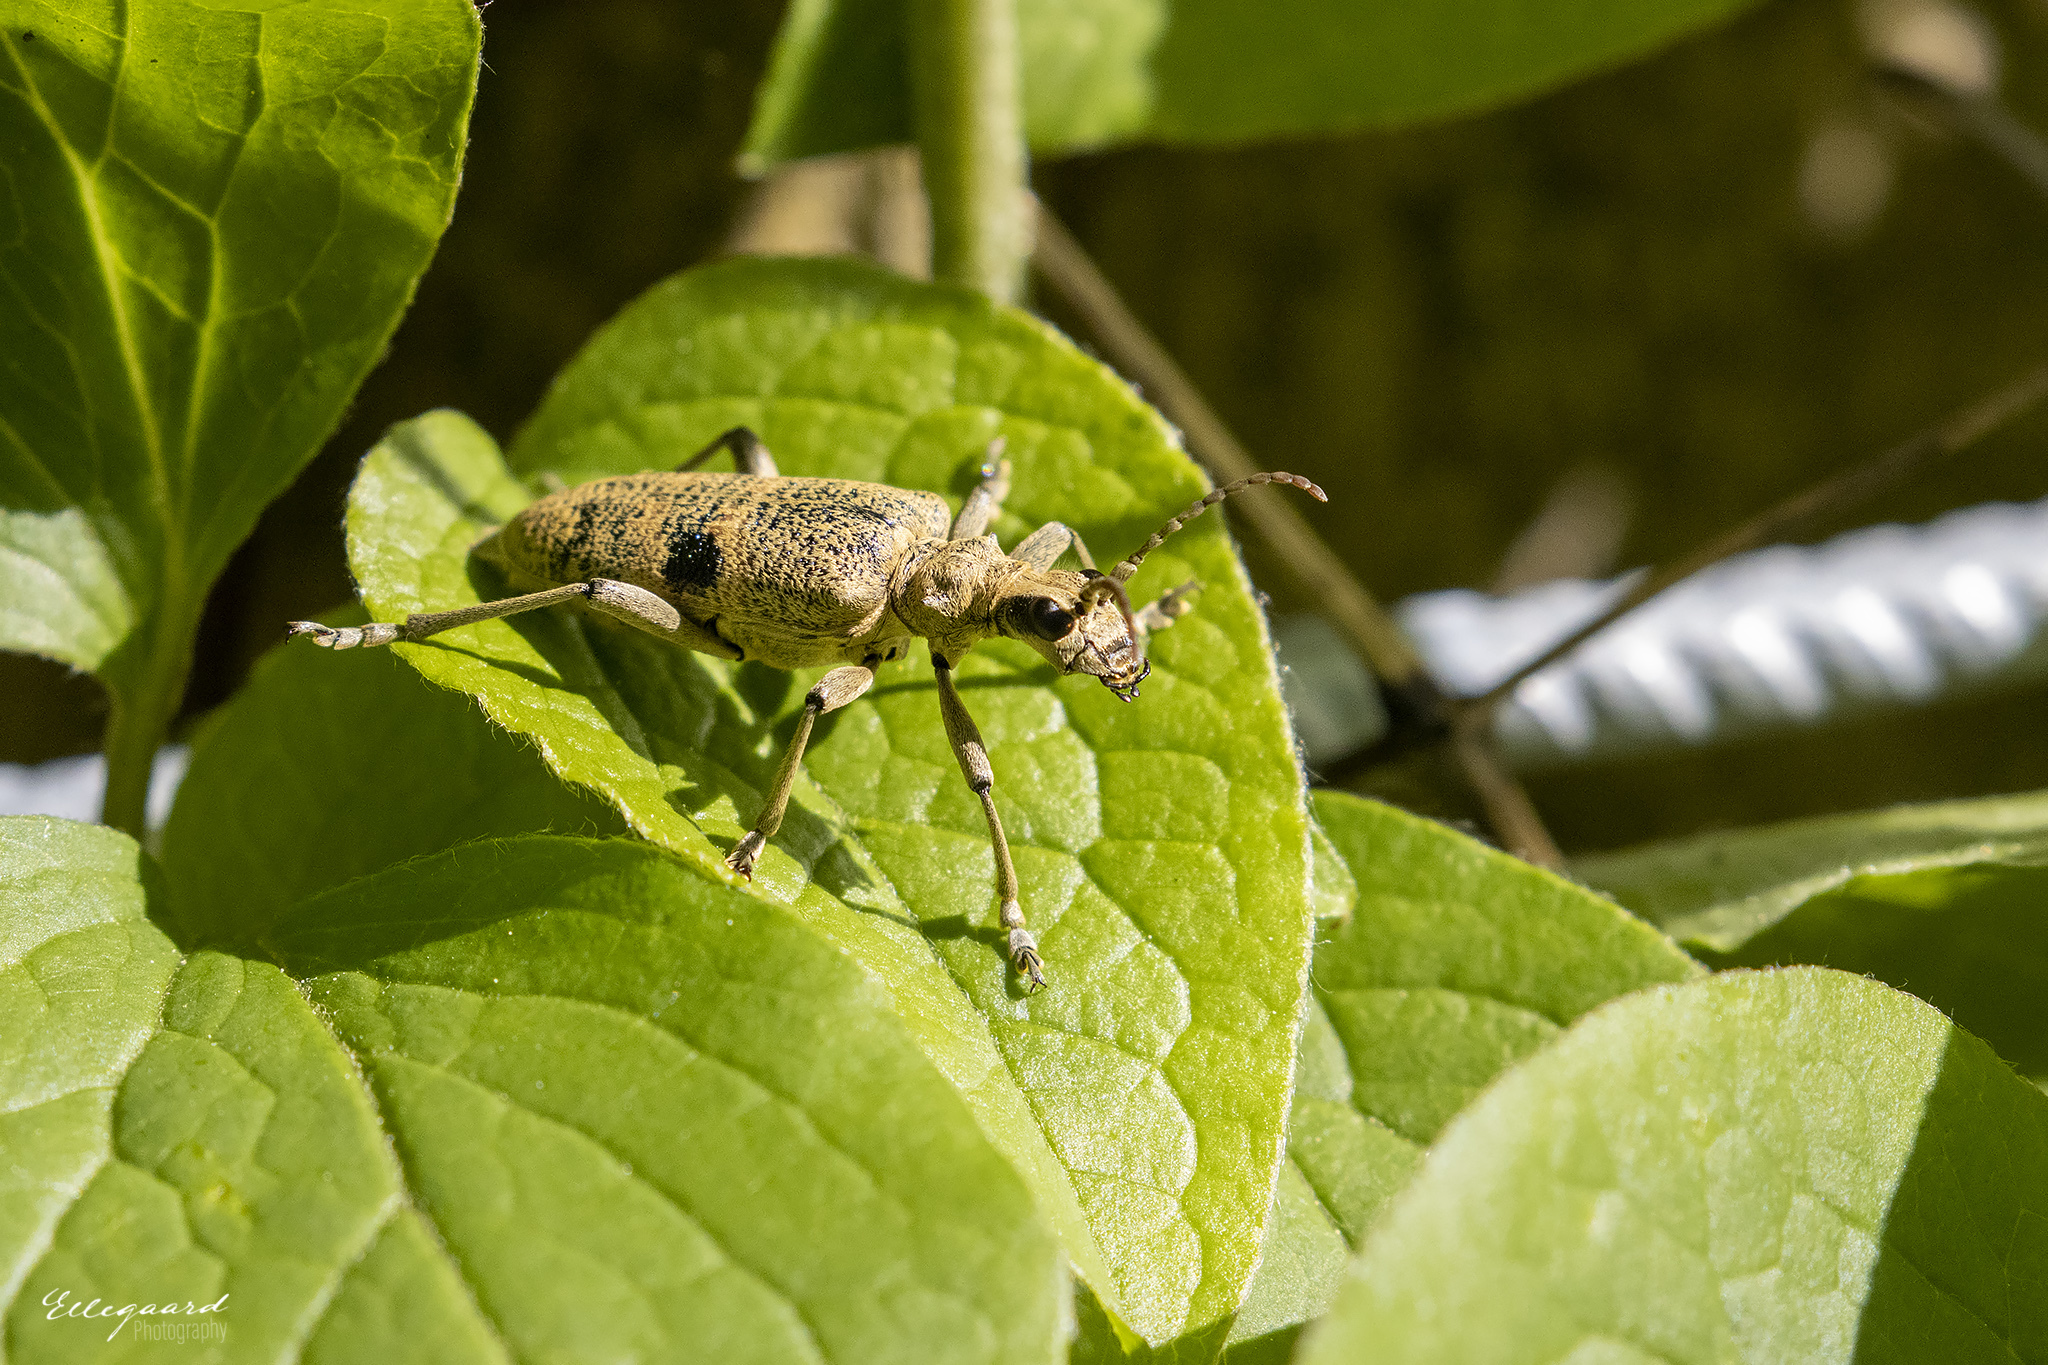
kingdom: Animalia
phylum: Arthropoda
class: Insecta
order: Coleoptera
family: Cerambycidae
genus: Rhagium
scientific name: Rhagium mordax
